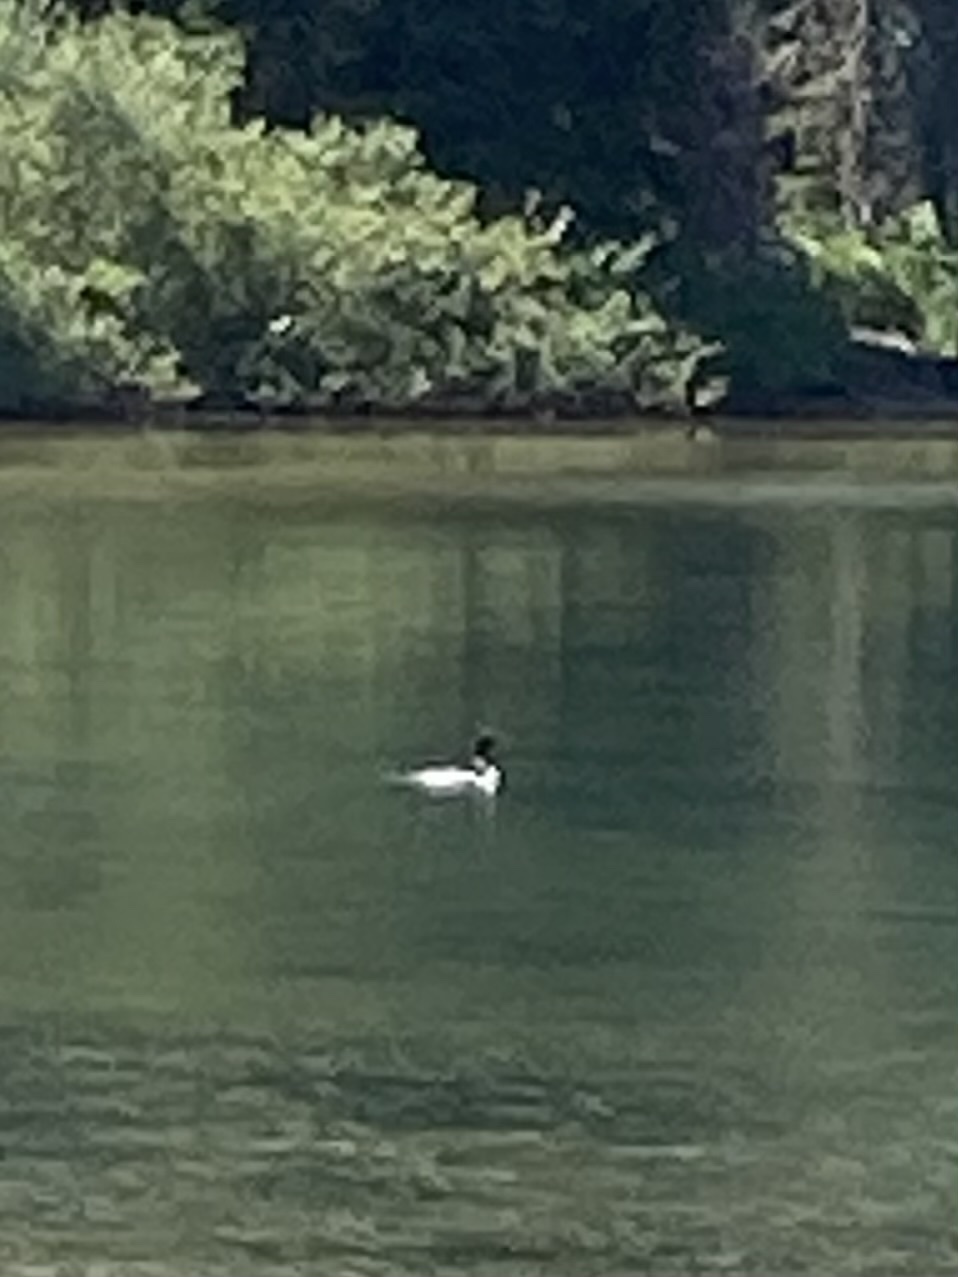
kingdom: Animalia
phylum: Chordata
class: Aves
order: Gaviiformes
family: Gaviidae
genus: Gavia
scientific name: Gavia immer
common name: Common loon
